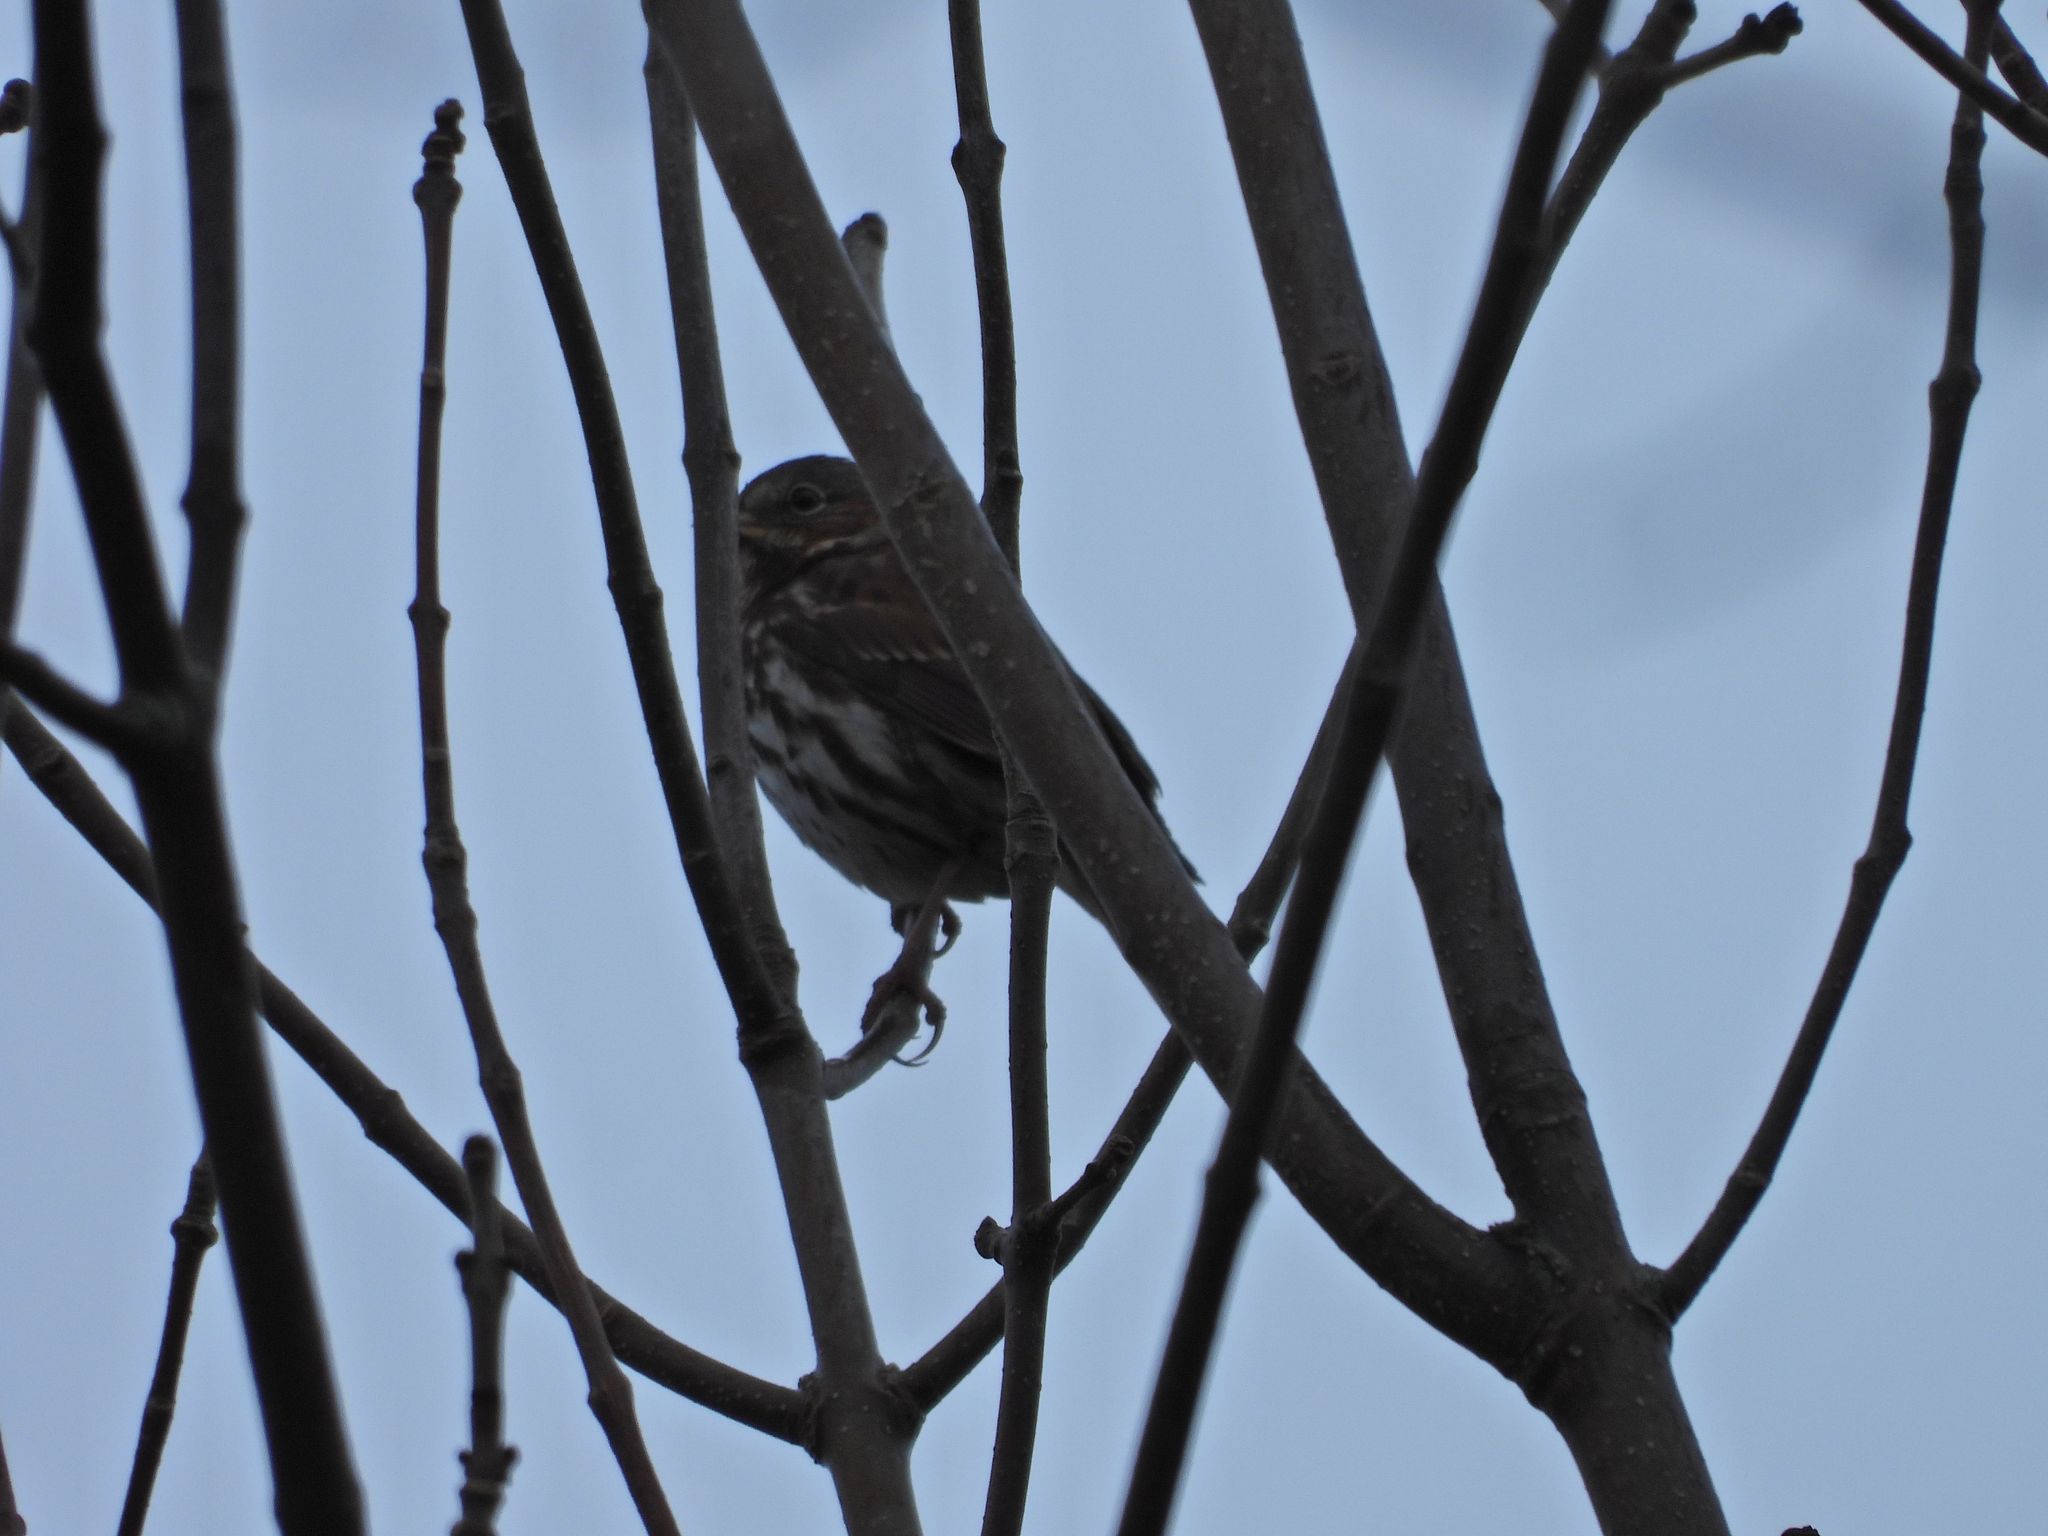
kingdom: Animalia
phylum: Chordata
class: Aves
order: Passeriformes
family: Passerellidae
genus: Passerella
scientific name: Passerella iliaca
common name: Fox sparrow
